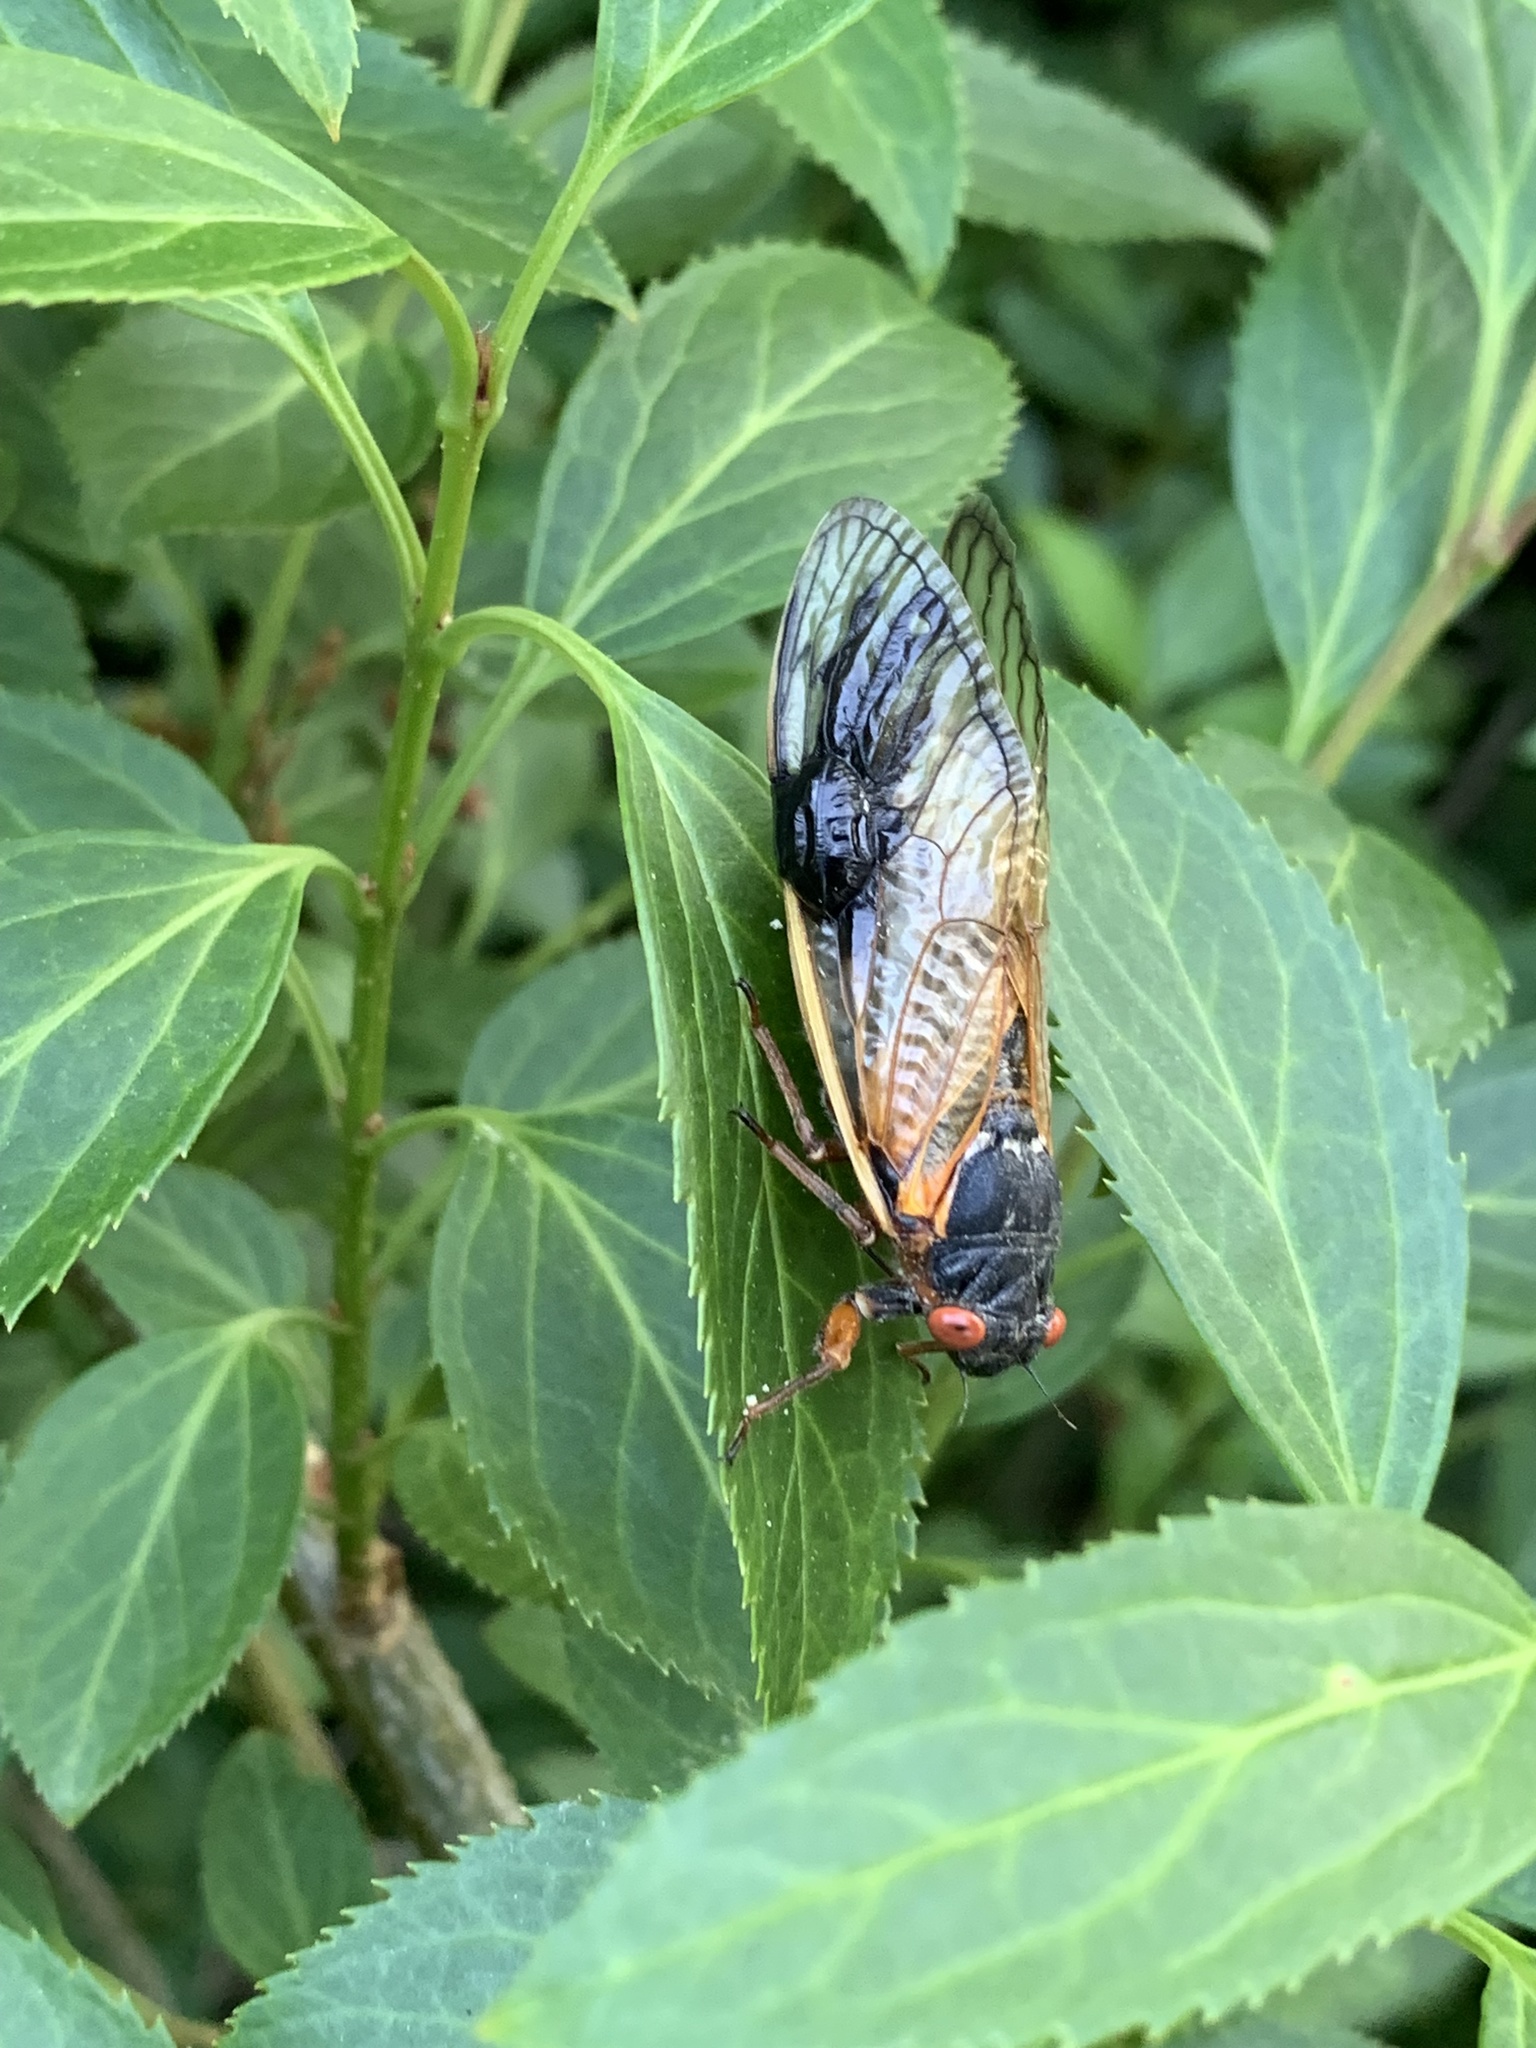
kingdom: Animalia
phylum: Arthropoda
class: Insecta
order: Hemiptera
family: Cicadidae
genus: Magicicada
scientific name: Magicicada septendecim
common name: Periodical cicada
